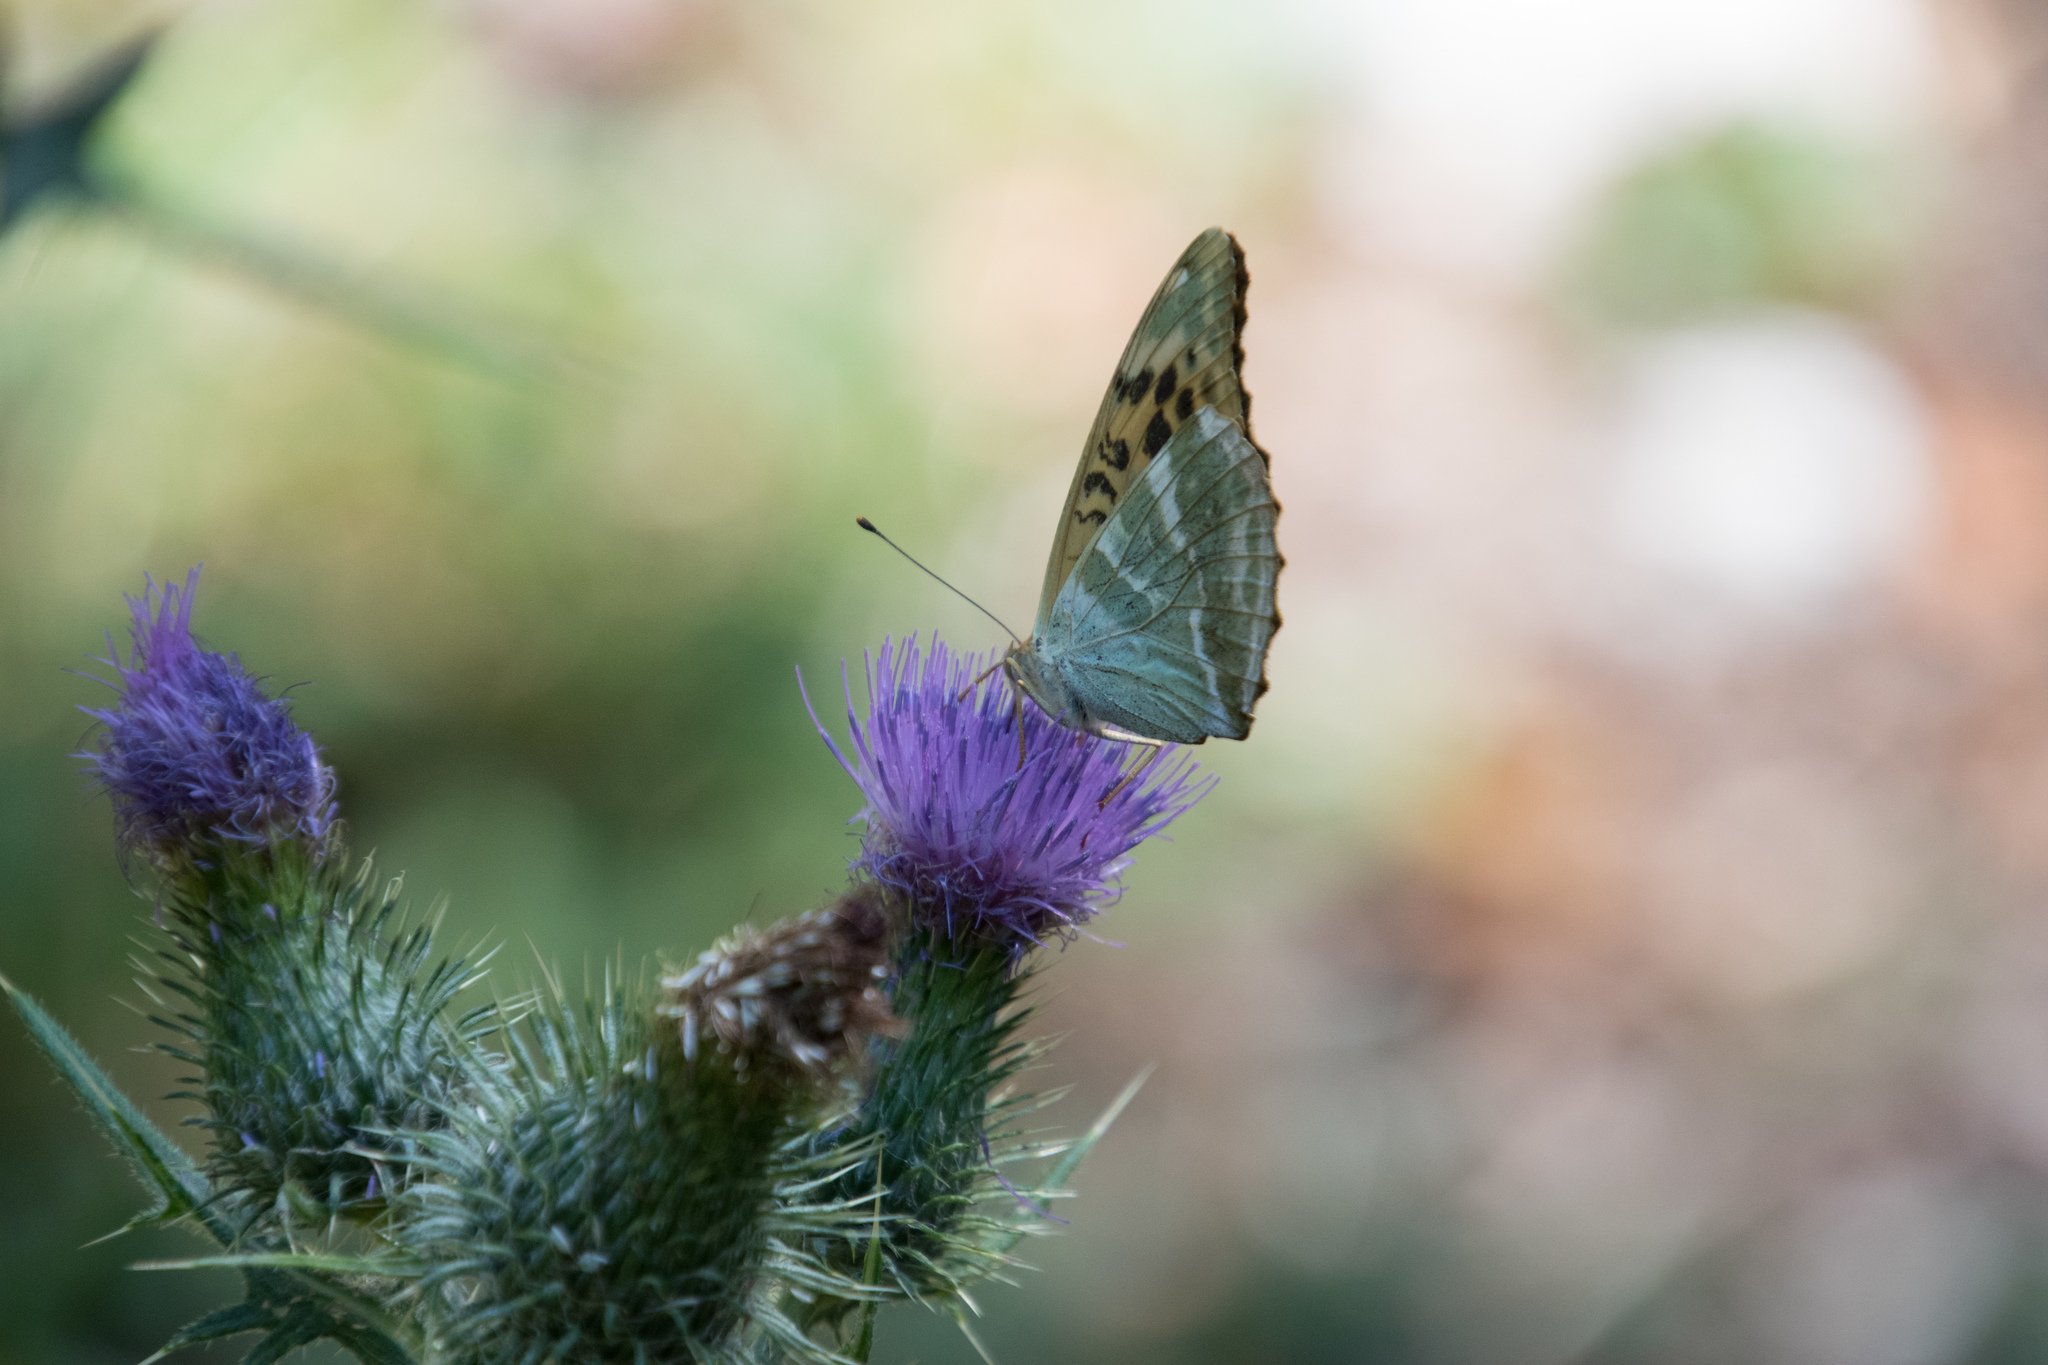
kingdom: Animalia
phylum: Arthropoda
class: Insecta
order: Lepidoptera
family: Nymphalidae
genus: Argynnis
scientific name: Argynnis paphia
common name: Silver-washed fritillary
